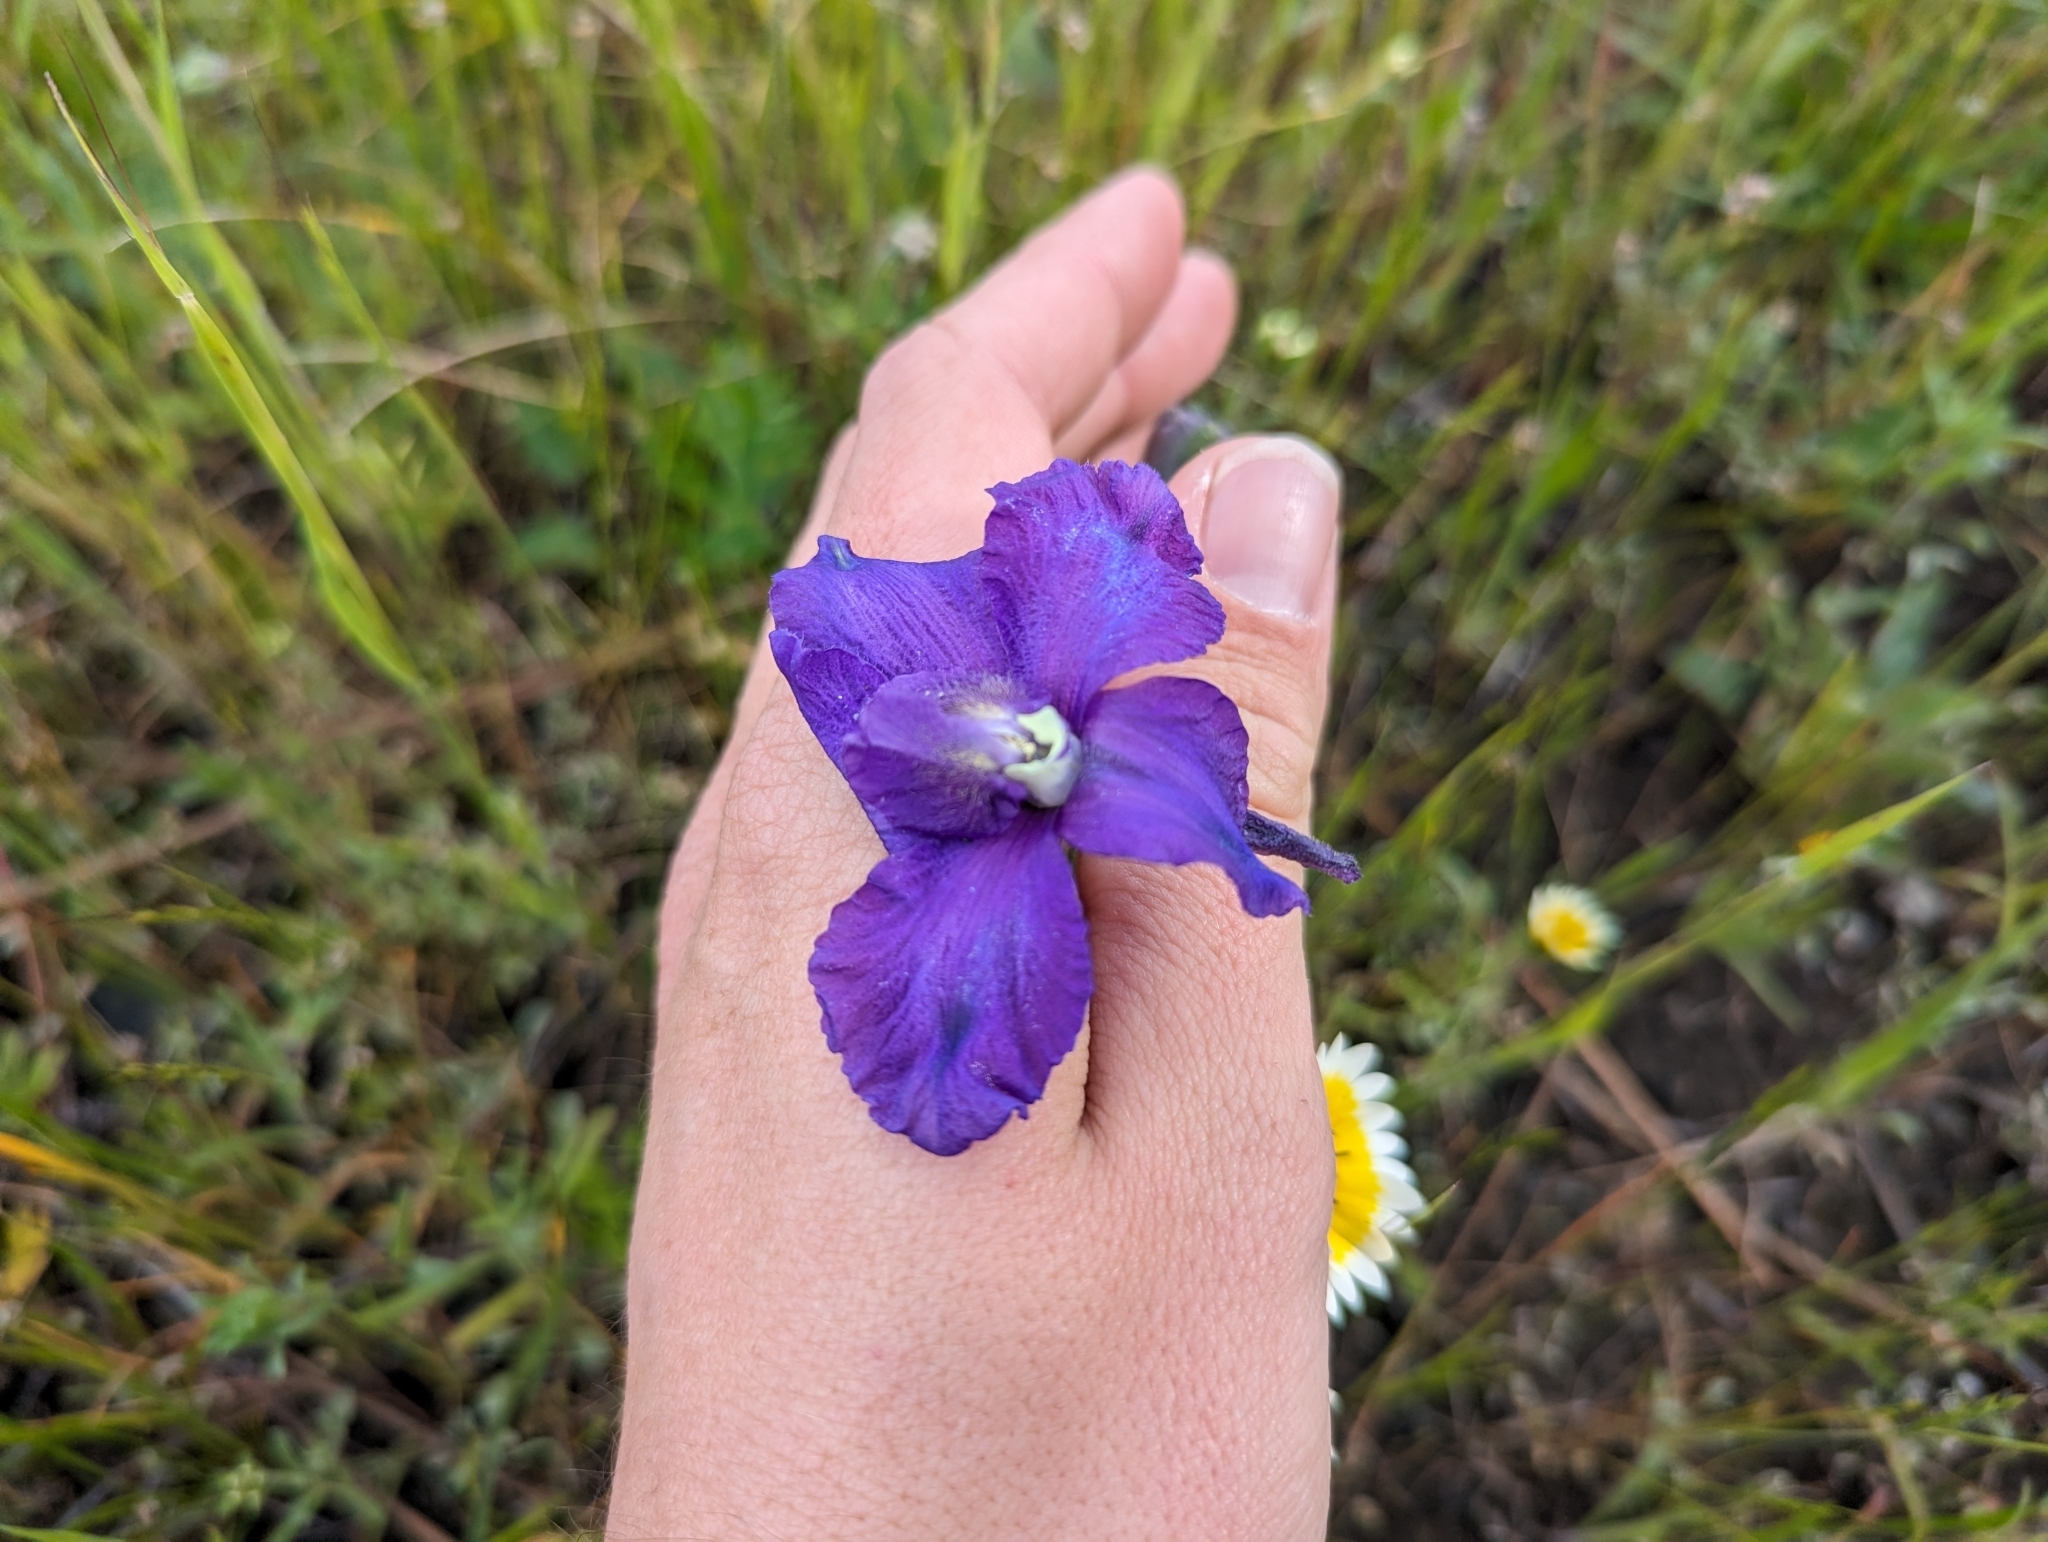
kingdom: Plantae
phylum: Tracheophyta
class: Magnoliopsida
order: Ranunculales
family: Ranunculaceae
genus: Delphinium
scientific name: Delphinium variegatum
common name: Royal larkspur
